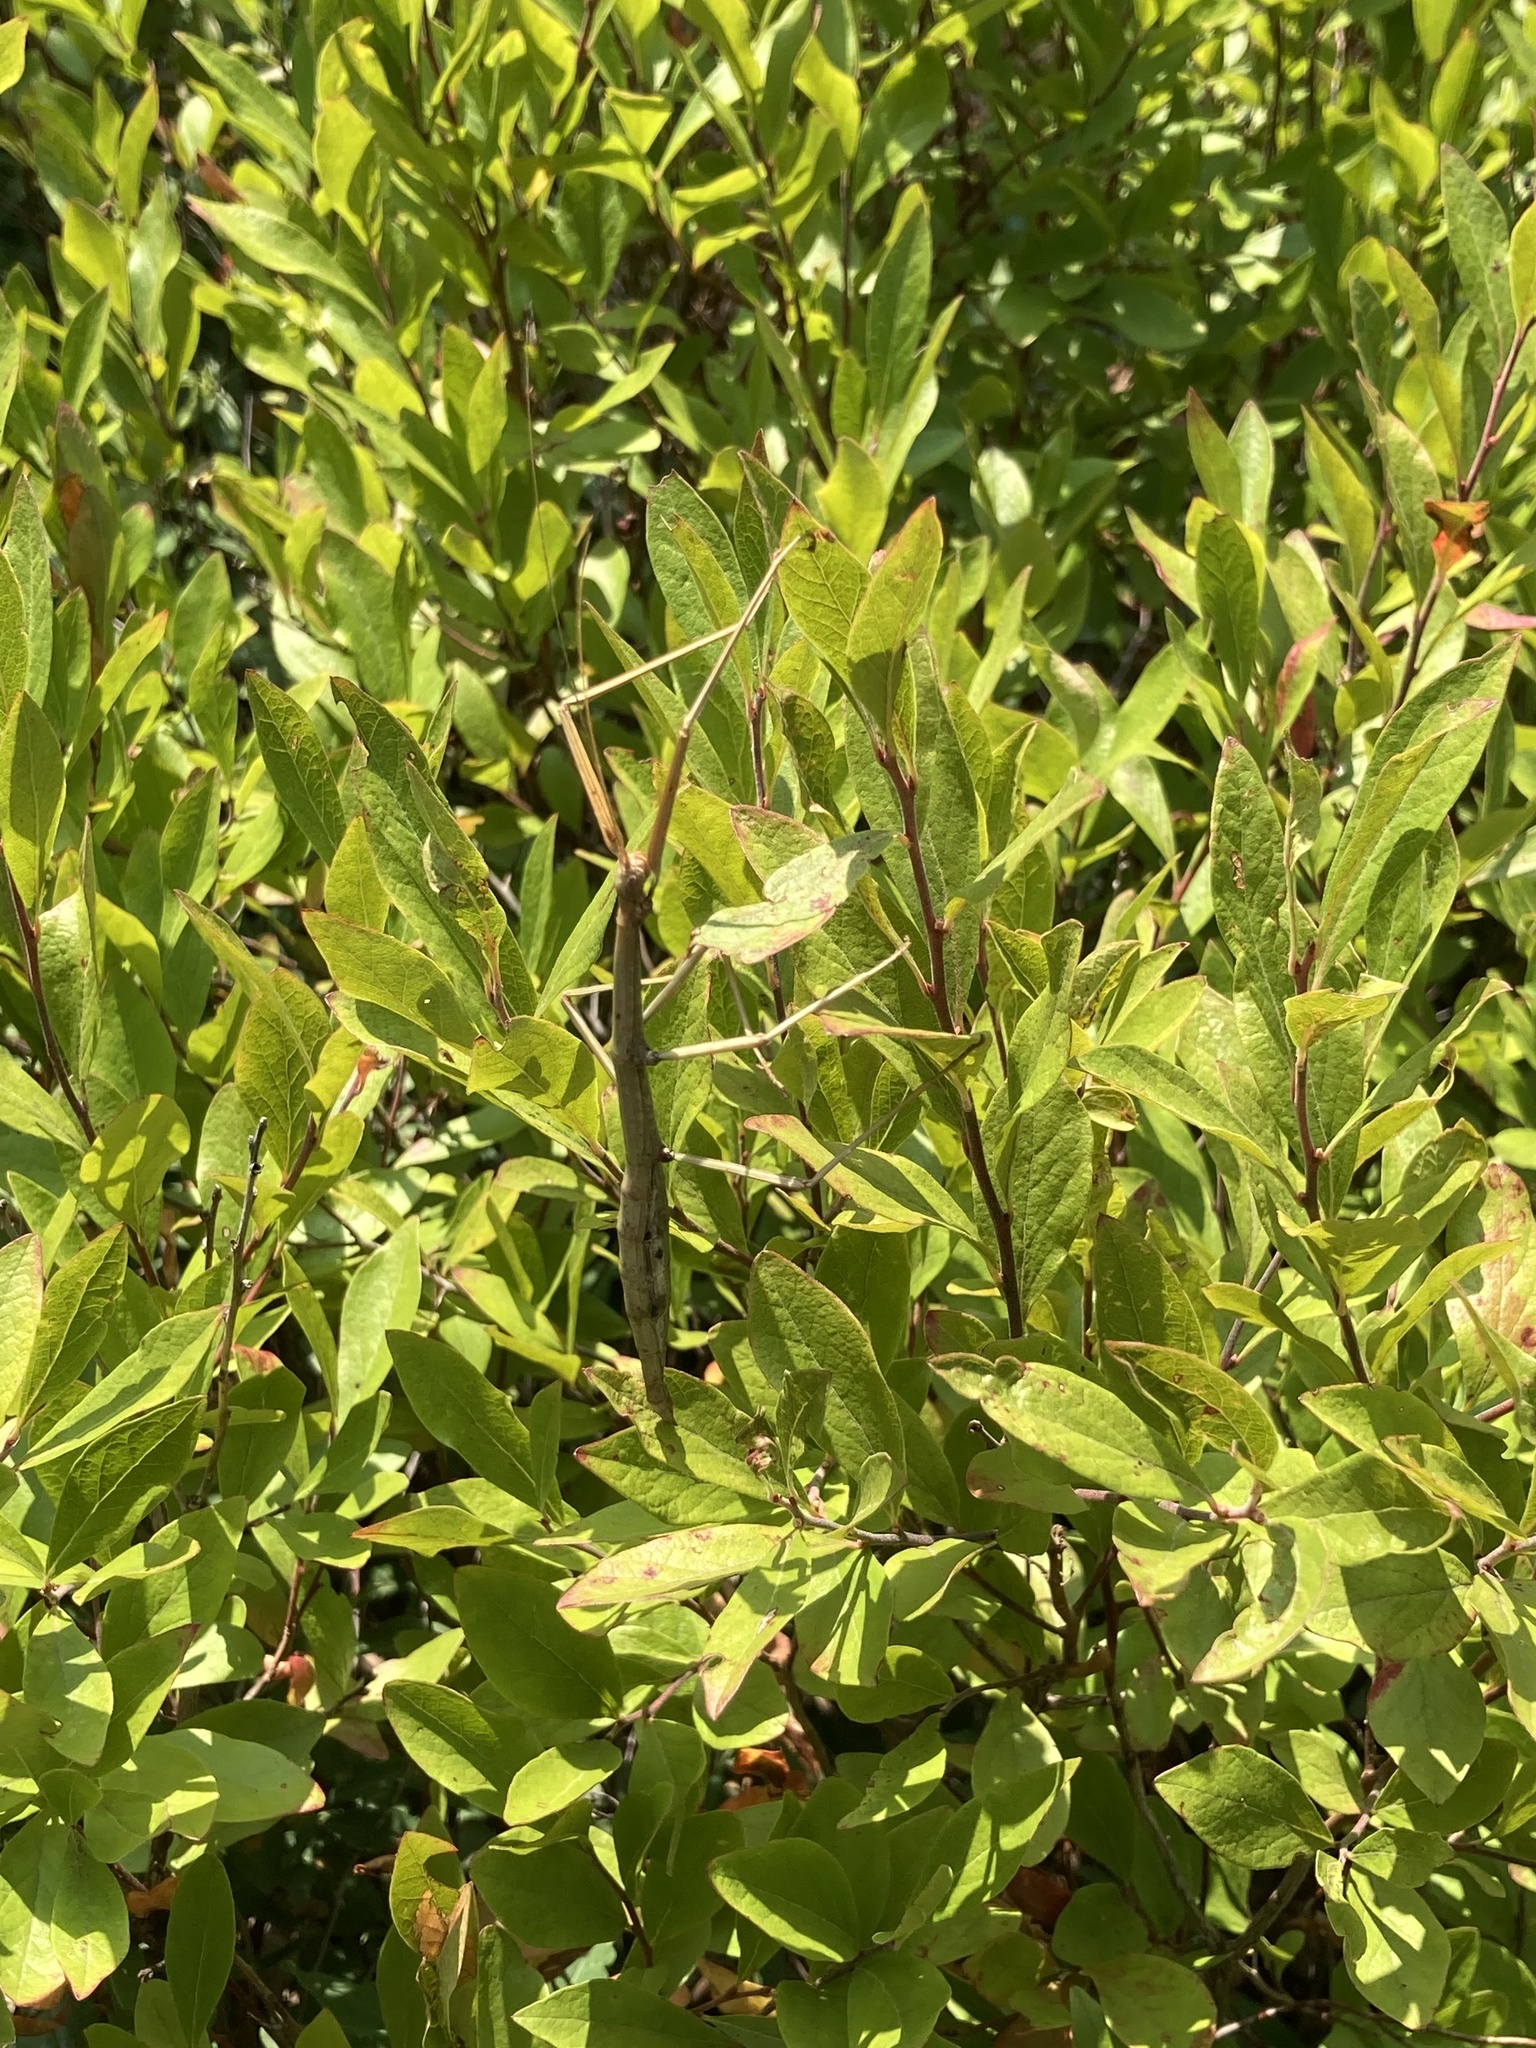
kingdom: Animalia
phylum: Arthropoda
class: Insecta
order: Phasmida
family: Diapheromeridae
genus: Diapheromera
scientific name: Diapheromera femorata
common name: Common american walkingstick
